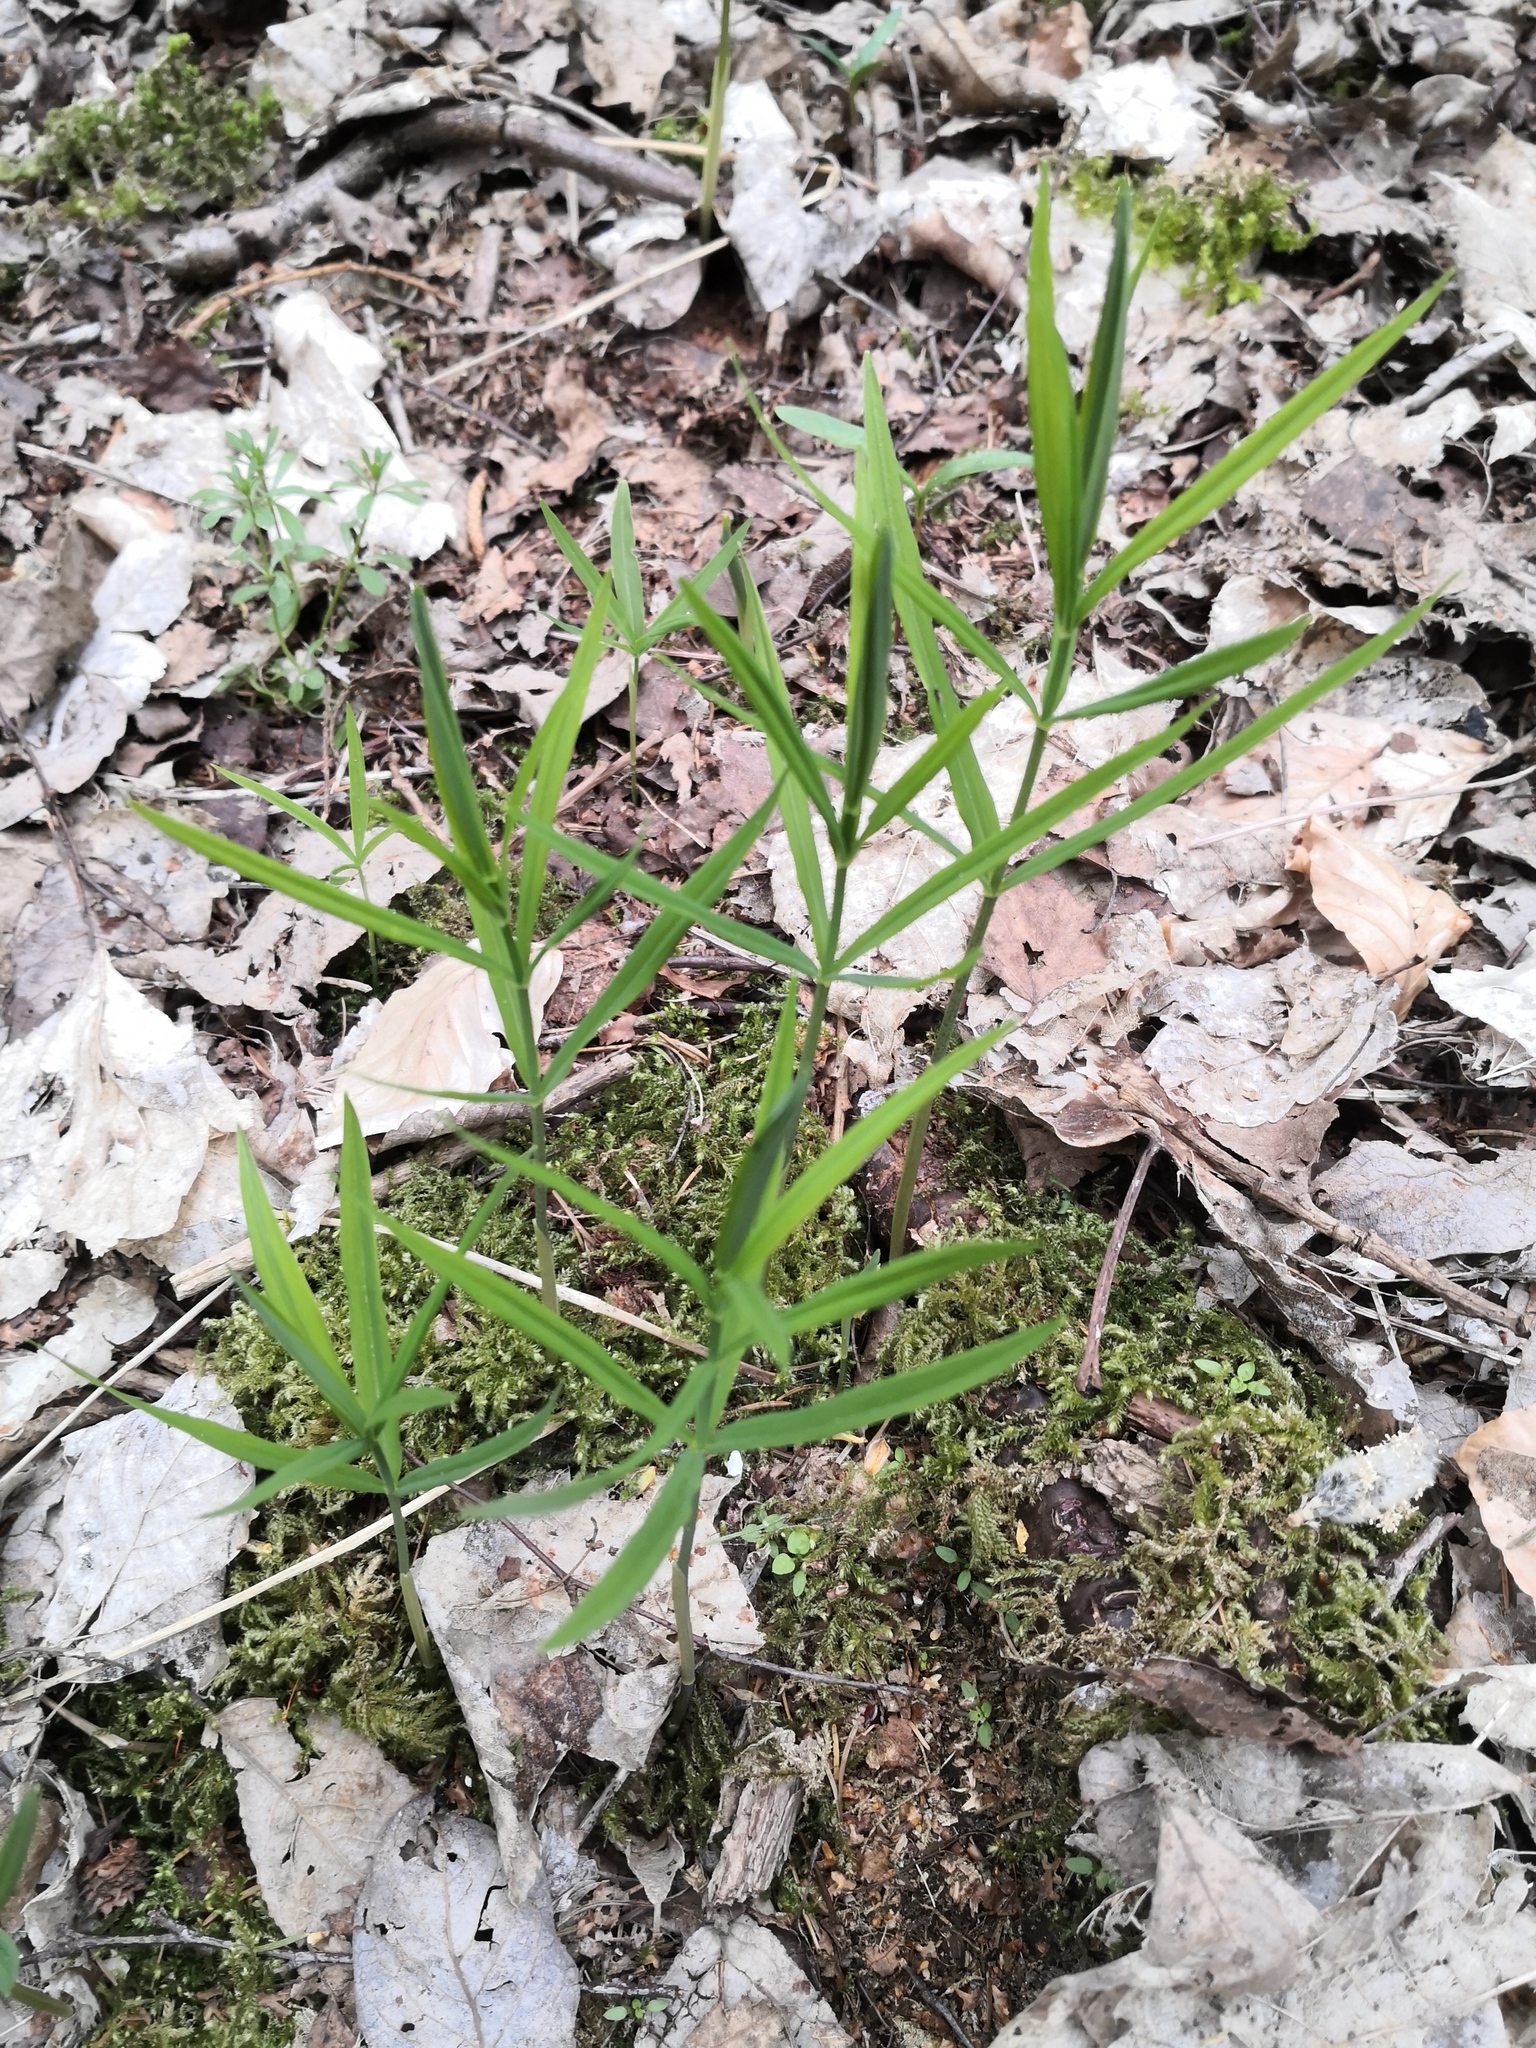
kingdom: Plantae
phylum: Tracheophyta
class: Liliopsida
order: Asparagales
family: Asparagaceae
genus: Polygonatum
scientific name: Polygonatum verticillatum
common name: Whorled solomon's-seal
